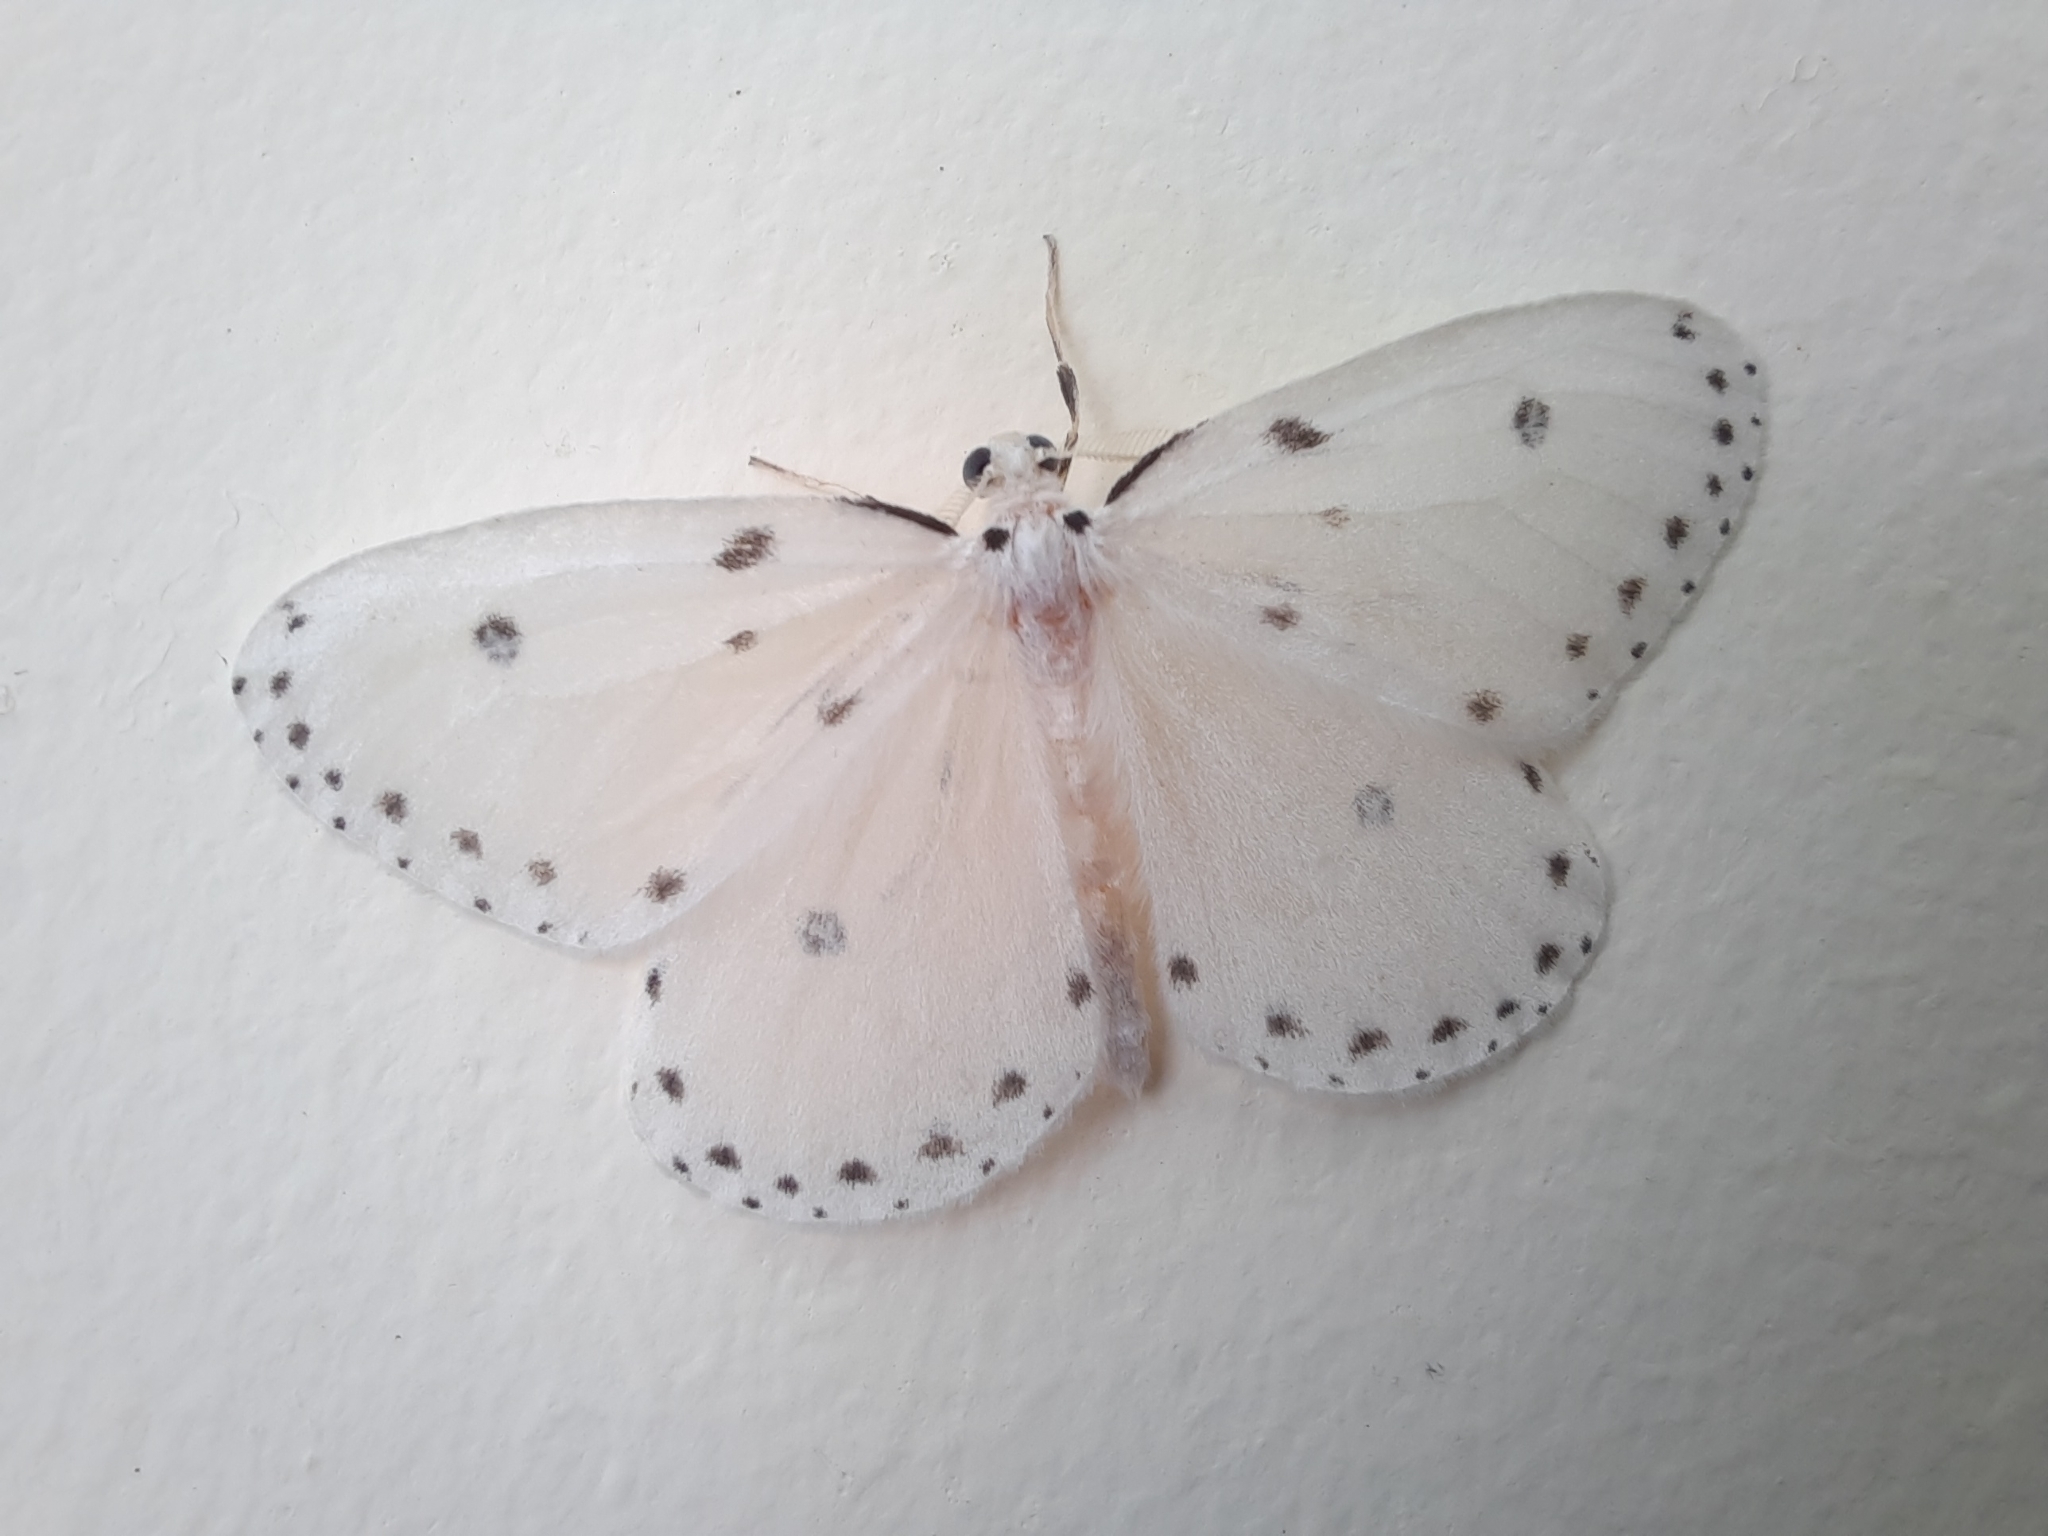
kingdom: Animalia
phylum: Arthropoda
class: Insecta
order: Lepidoptera
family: Geometridae
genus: Naxa
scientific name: Naxa textilis
